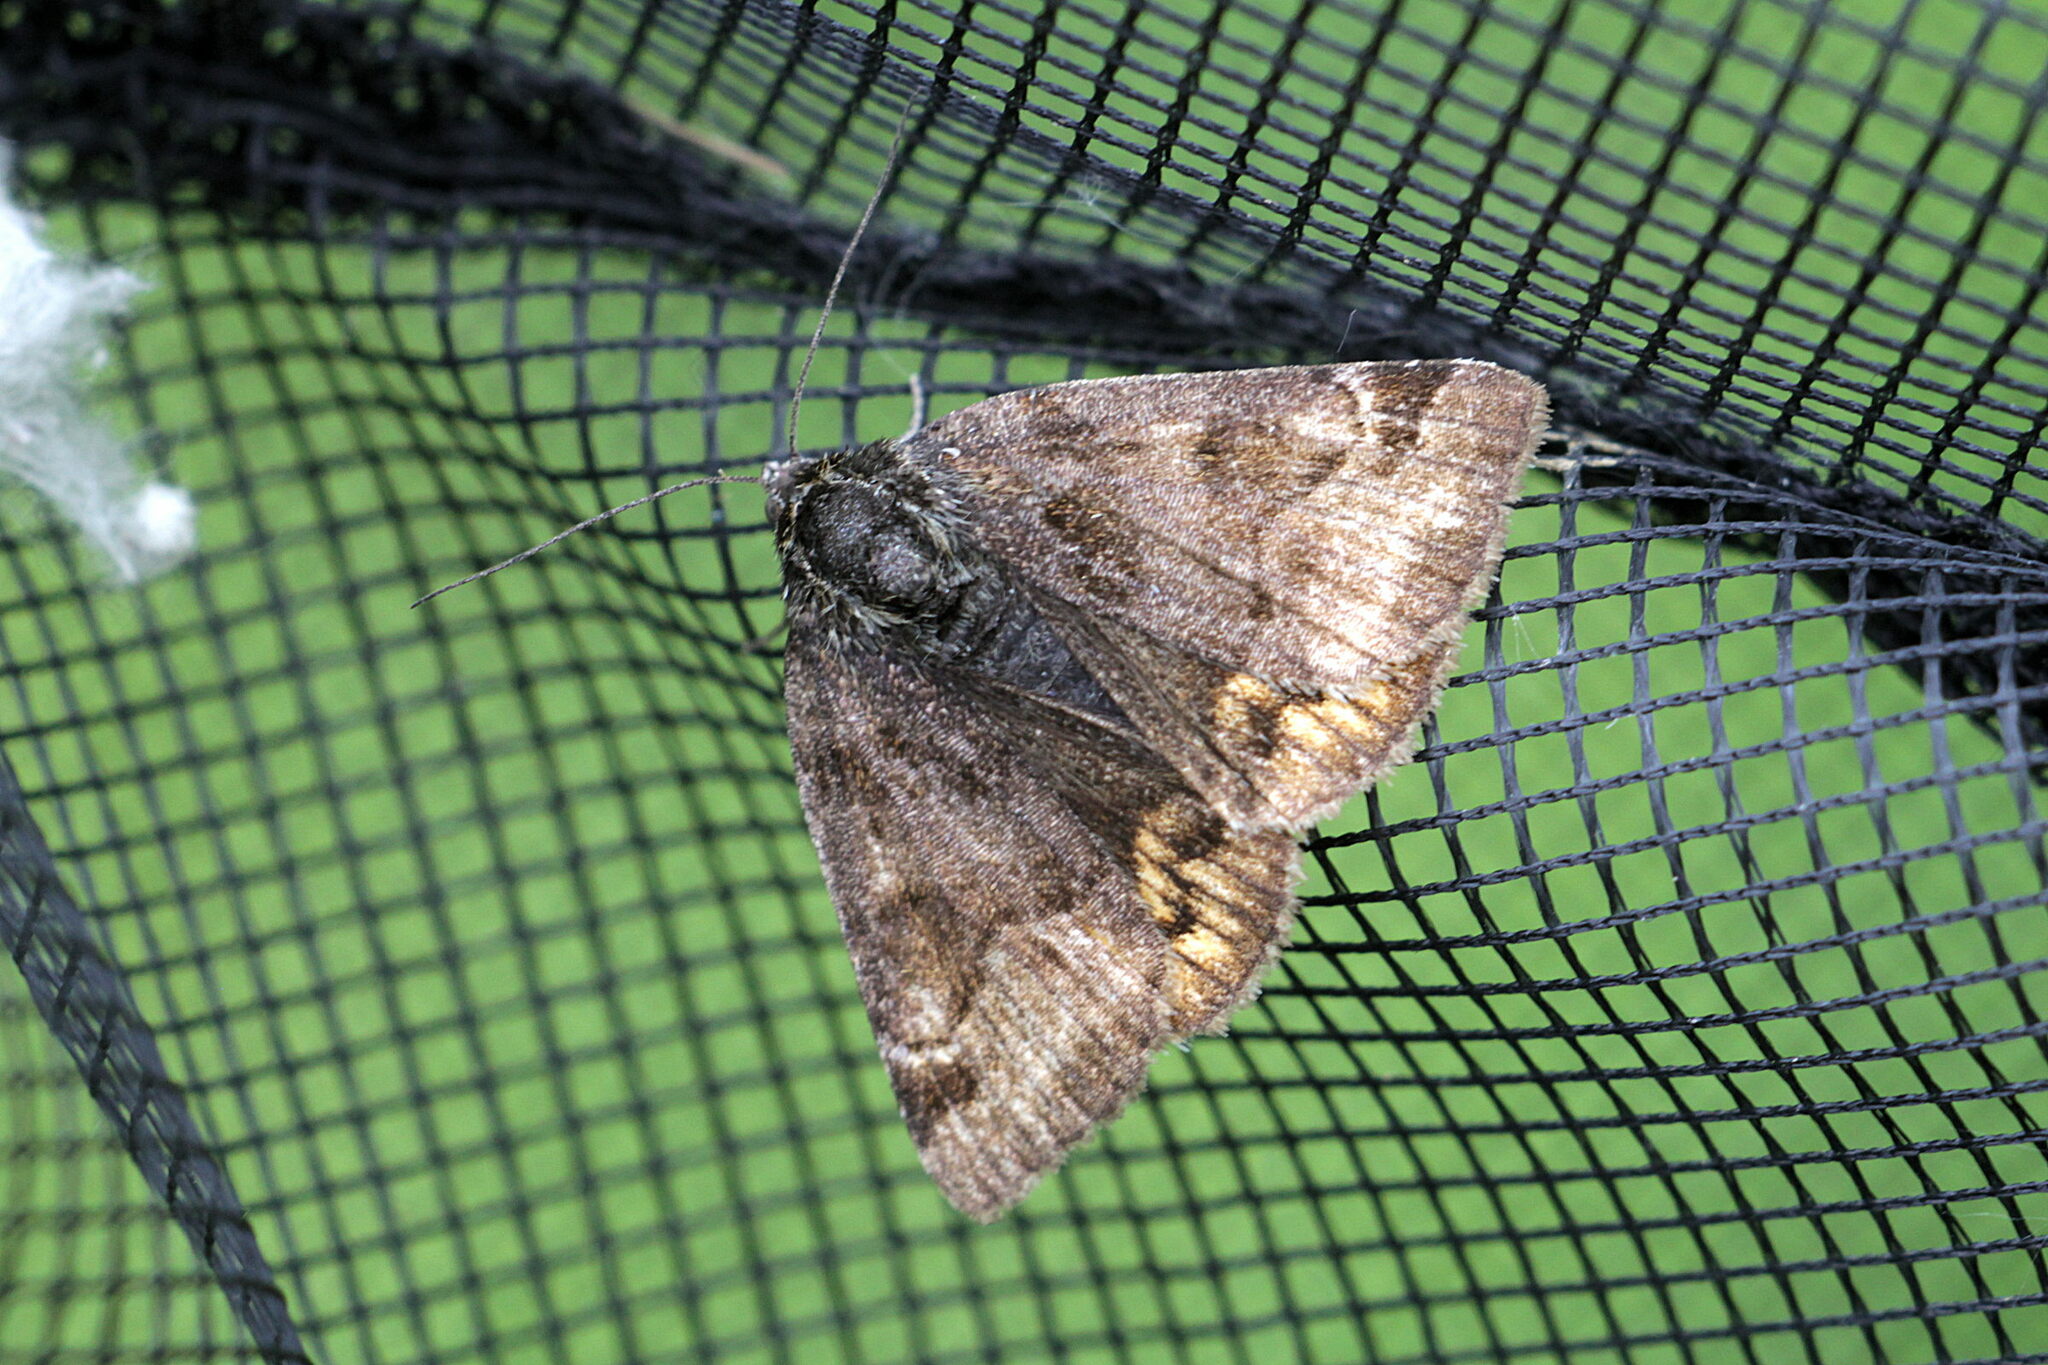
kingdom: Animalia
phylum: Arthropoda
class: Insecta
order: Lepidoptera
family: Erebidae
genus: Euclidia
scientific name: Euclidia glyphica
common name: Burnet companion
